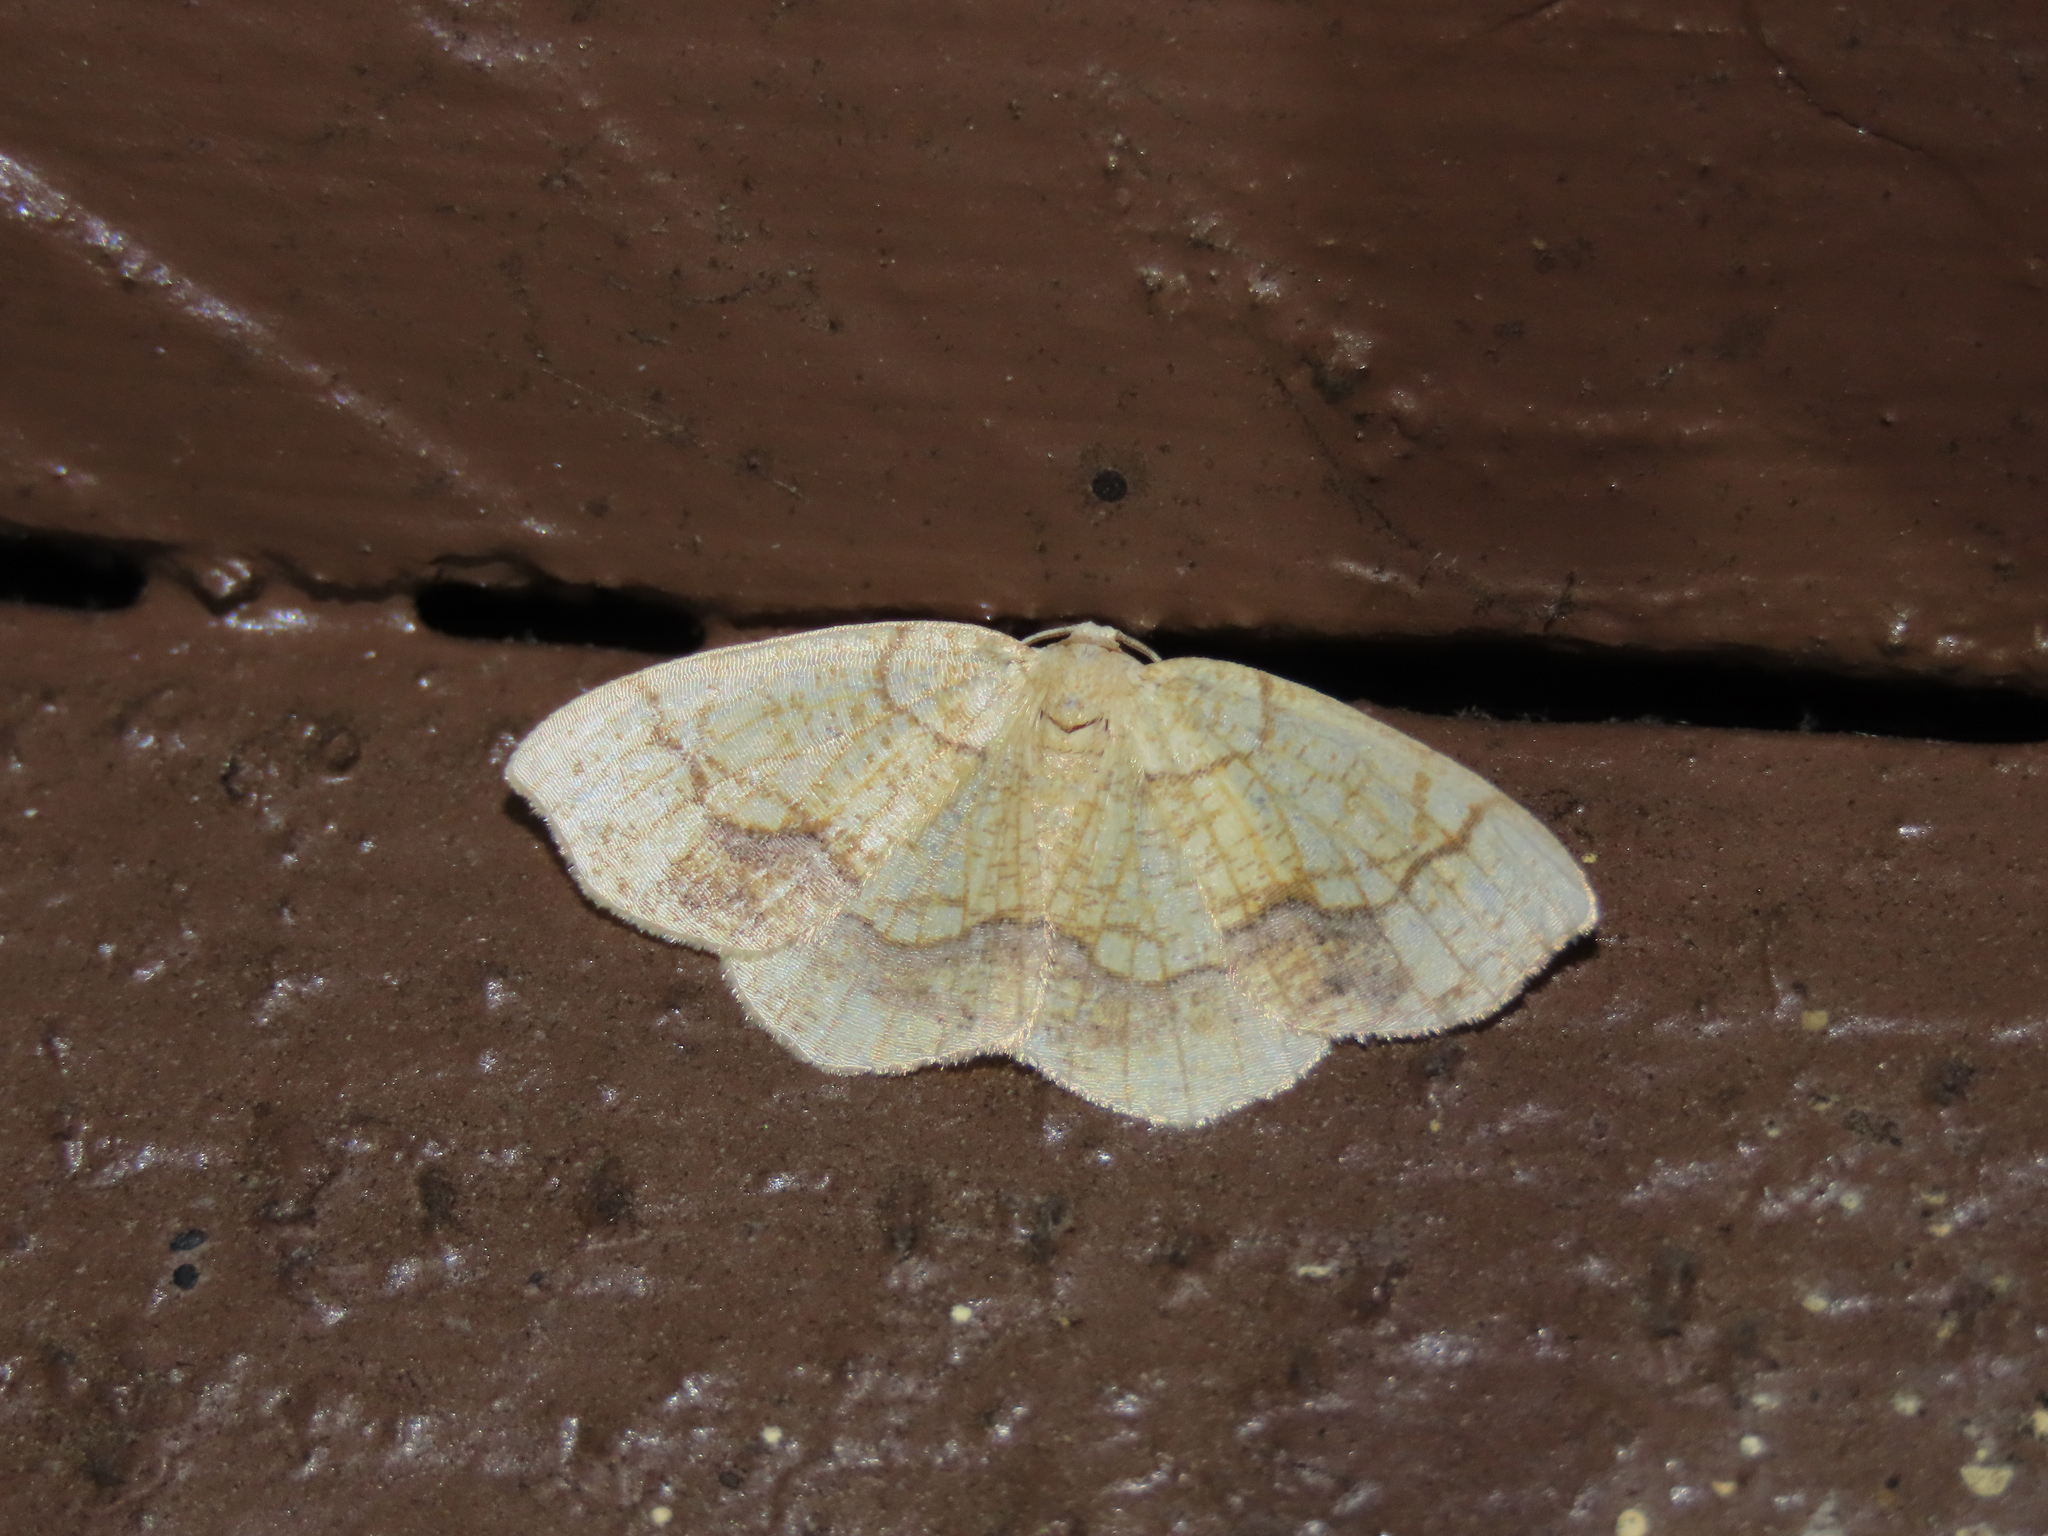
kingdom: Animalia
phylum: Arthropoda
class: Insecta
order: Lepidoptera
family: Geometridae
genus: Nematocampa
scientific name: Nematocampa resistaria
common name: Horned spanworm moth
